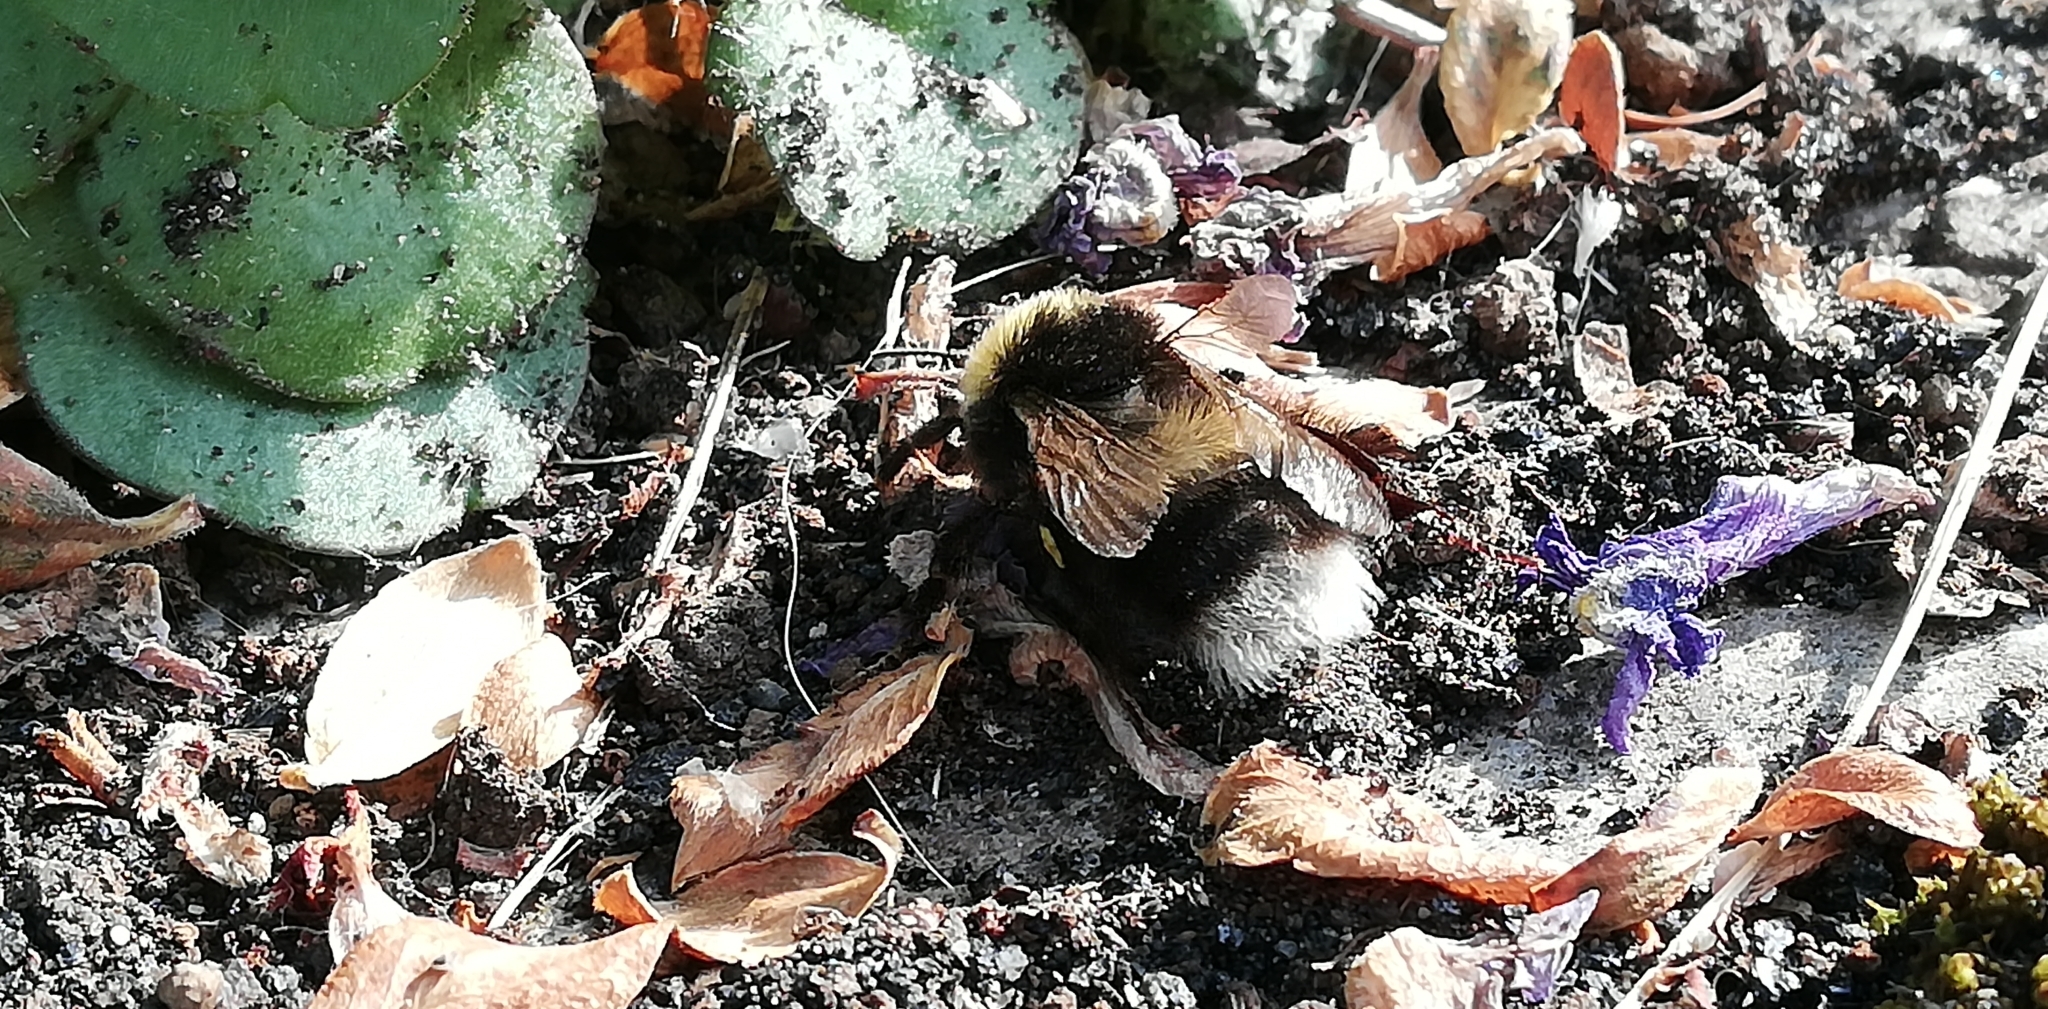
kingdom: Animalia
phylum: Arthropoda
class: Insecta
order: Hymenoptera
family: Apidae
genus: Bombus
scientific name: Bombus lucorum
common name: White-tailed bumblebee
